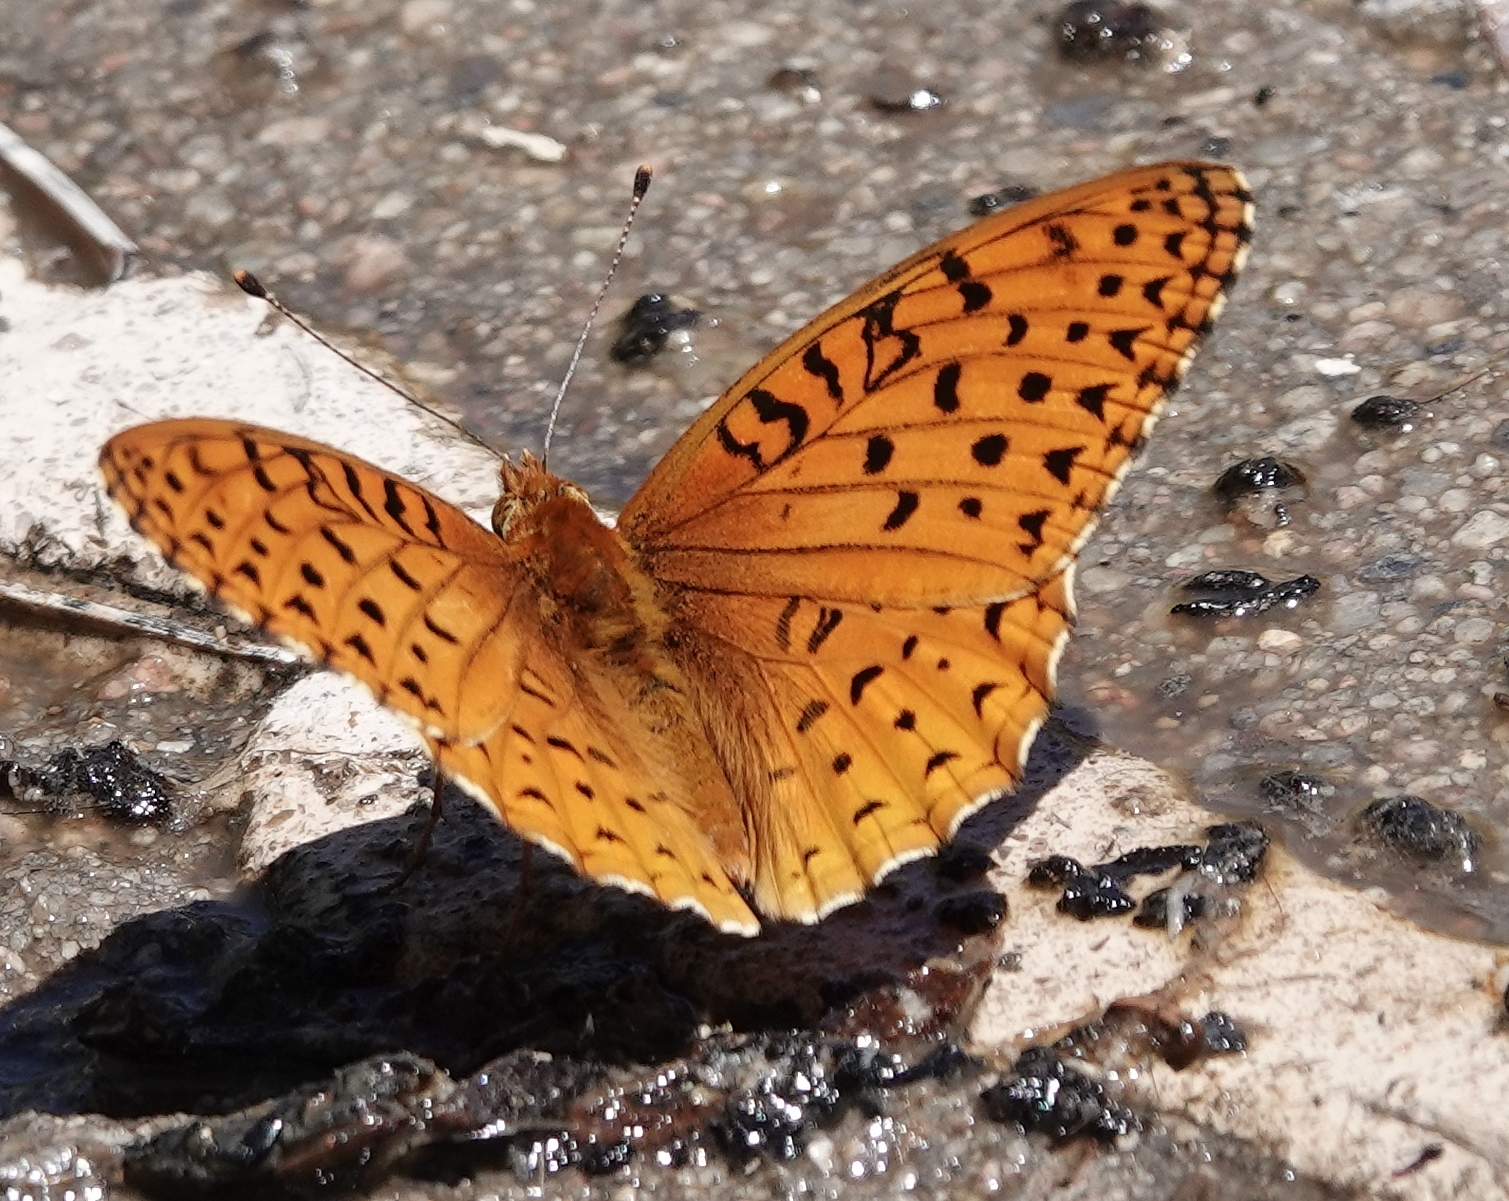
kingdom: Animalia
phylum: Arthropoda
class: Insecta
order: Lepidoptera
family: Nymphalidae
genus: Speyeria
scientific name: Speyeria aphrodite
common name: Aphrodite friitllary
